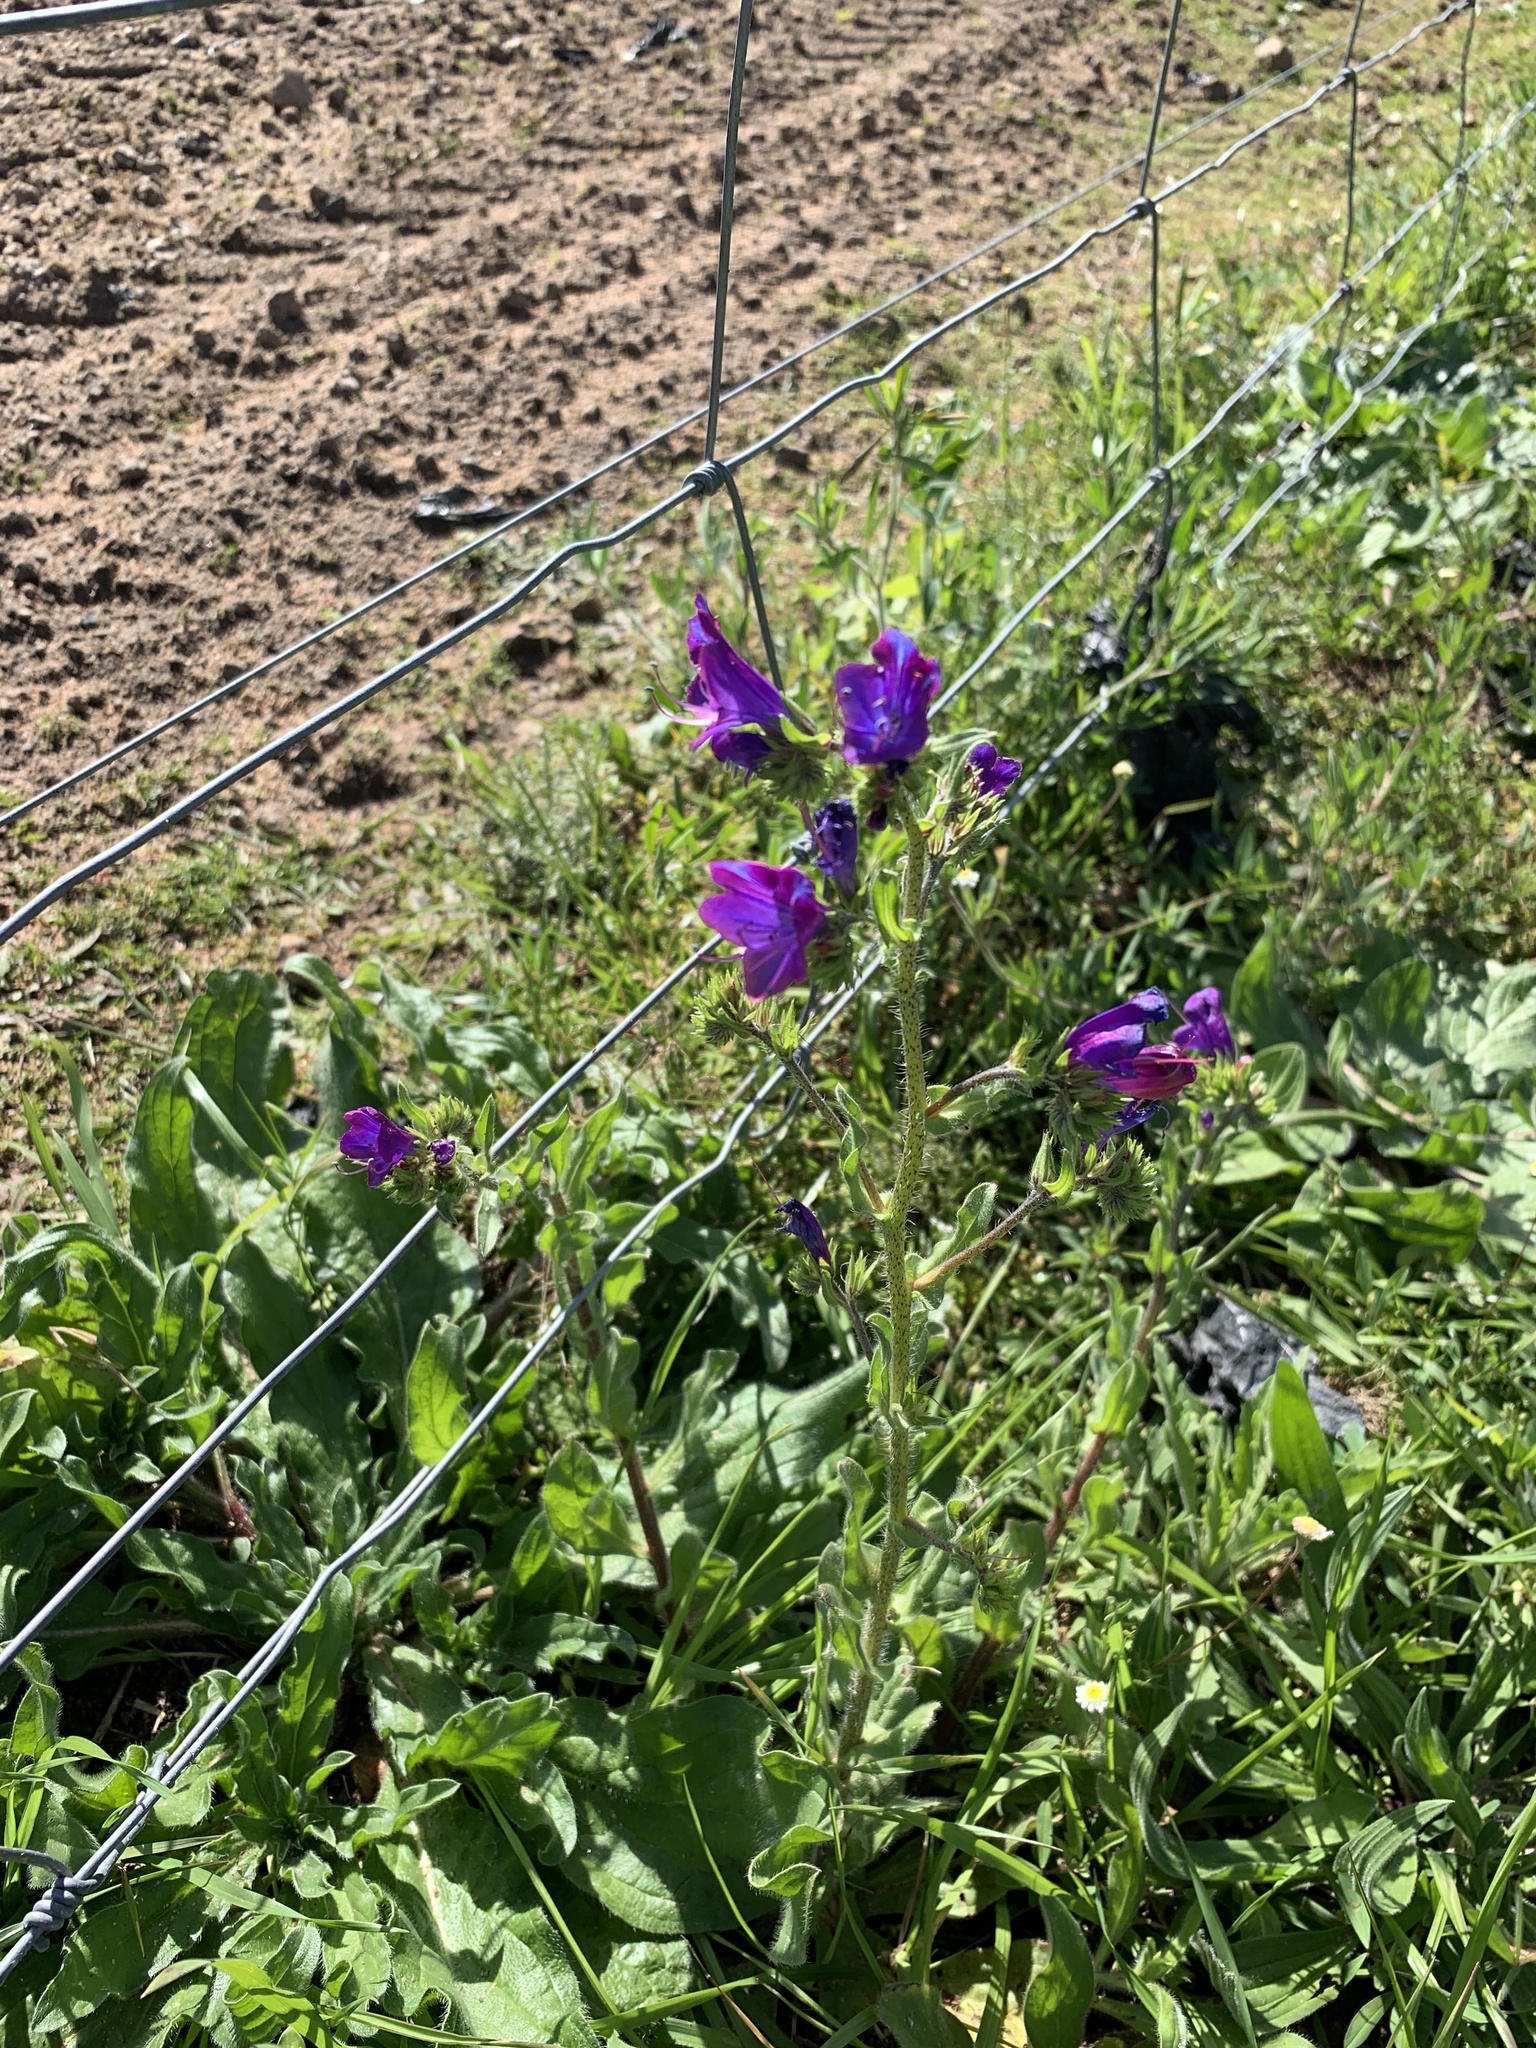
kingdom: Plantae
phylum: Tracheophyta
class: Magnoliopsida
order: Boraginales
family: Boraginaceae
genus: Echium
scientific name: Echium plantagineum
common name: Purple viper's-bugloss
